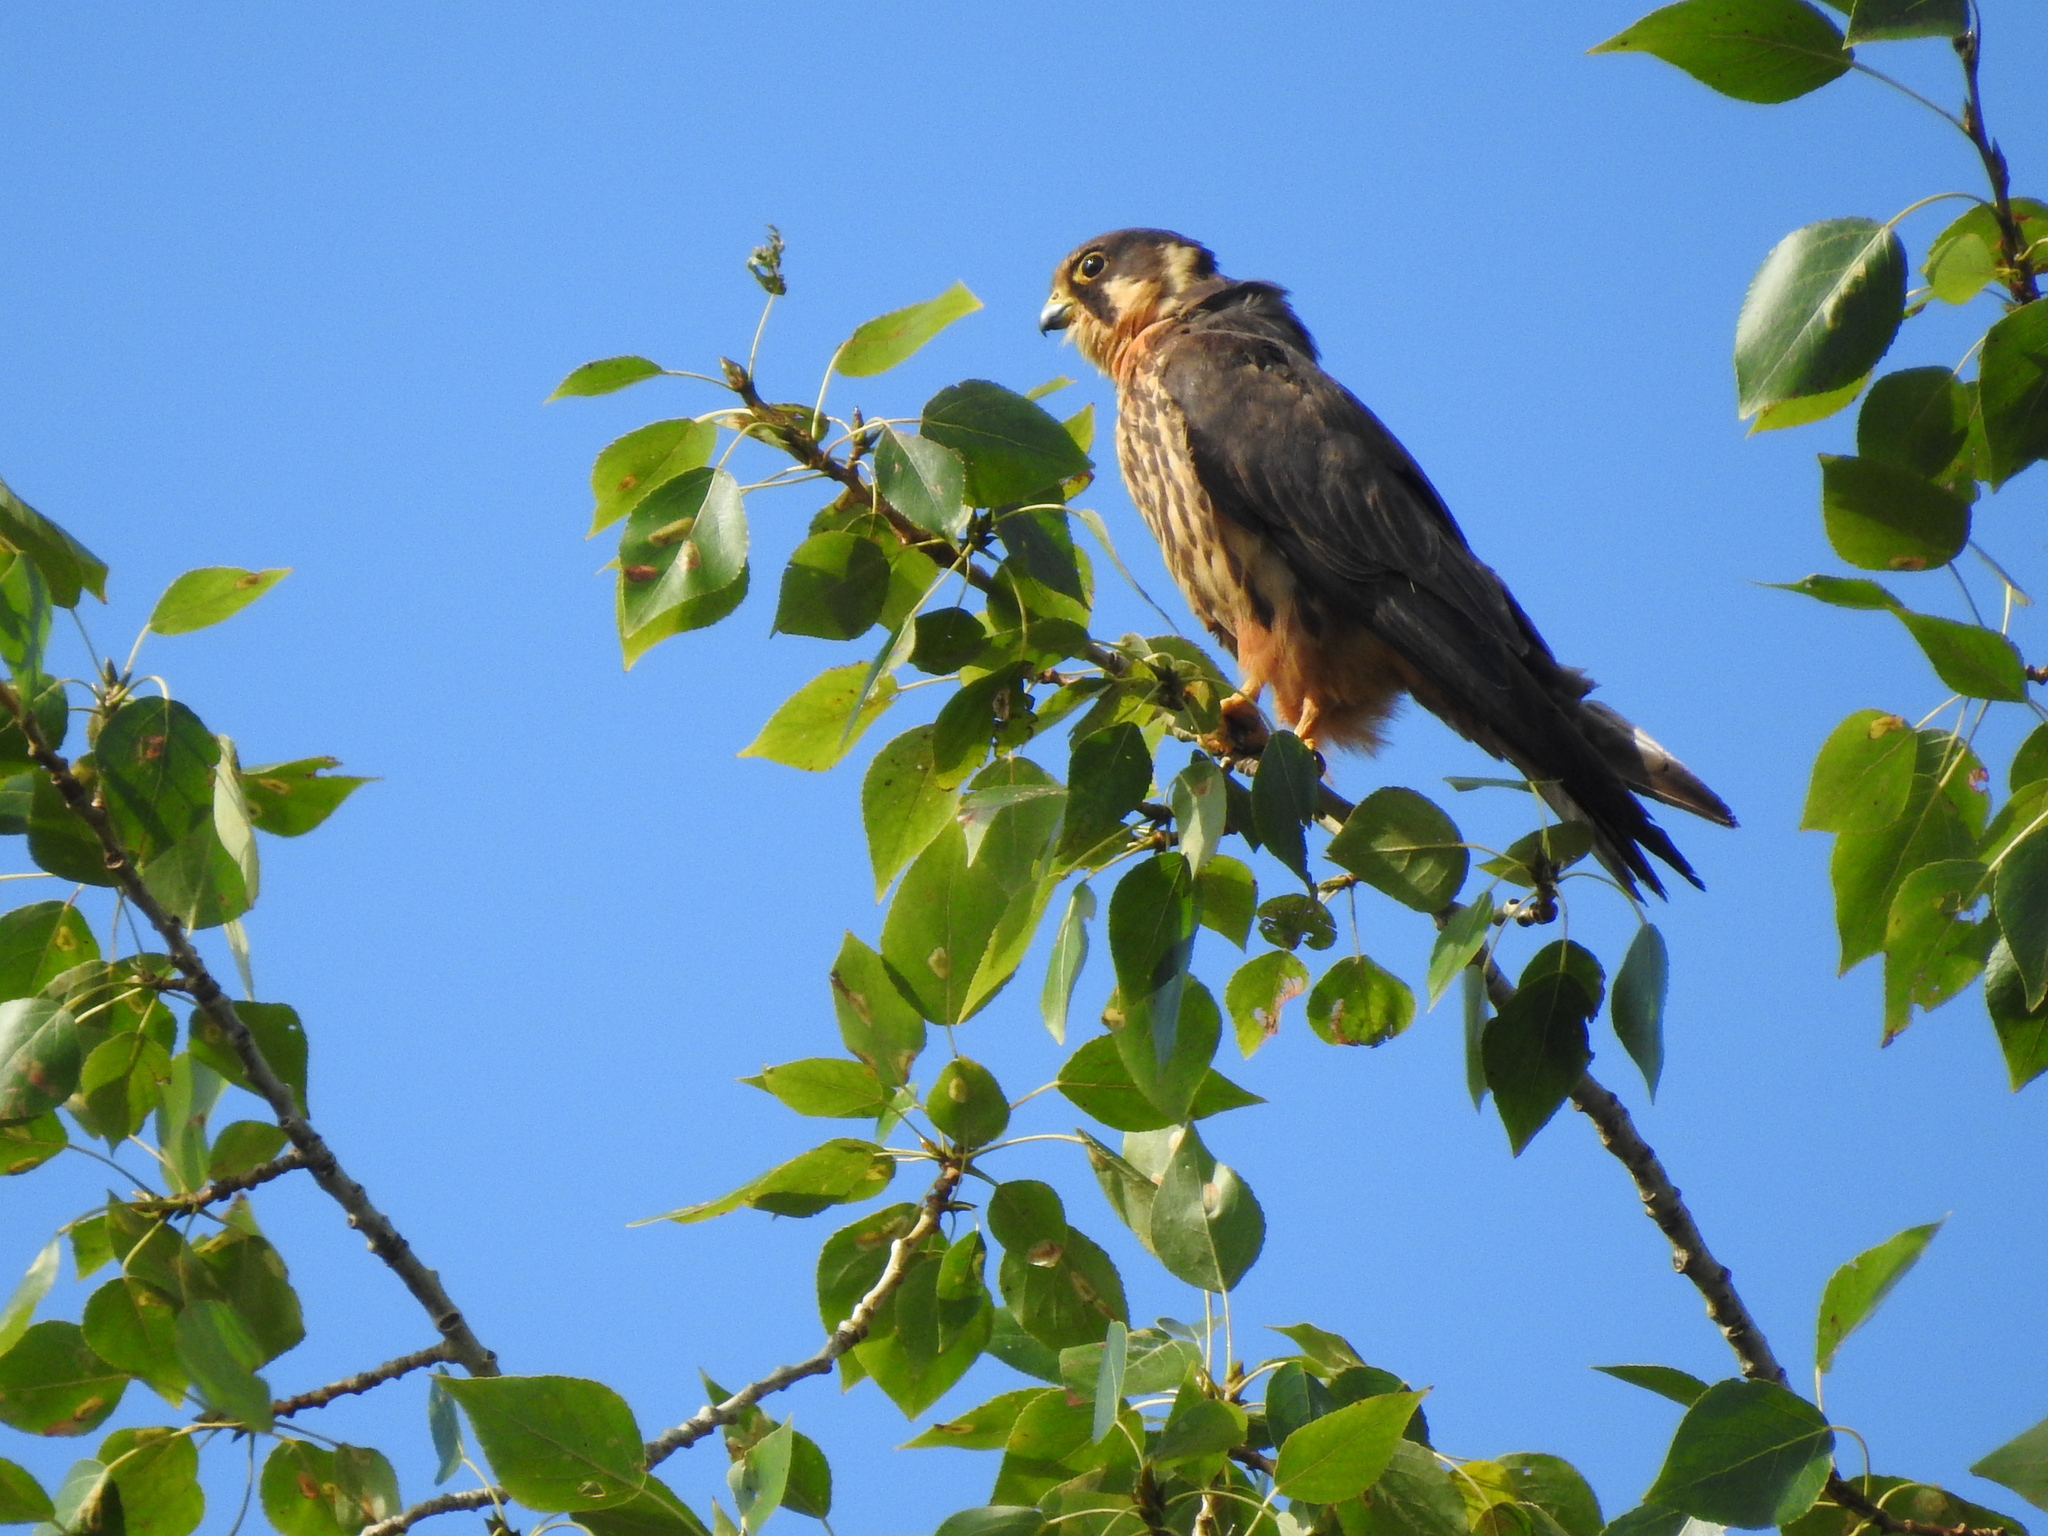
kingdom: Animalia
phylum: Chordata
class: Aves
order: Falconiformes
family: Falconidae
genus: Falco
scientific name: Falco subbuteo
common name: Eurasian hobby
